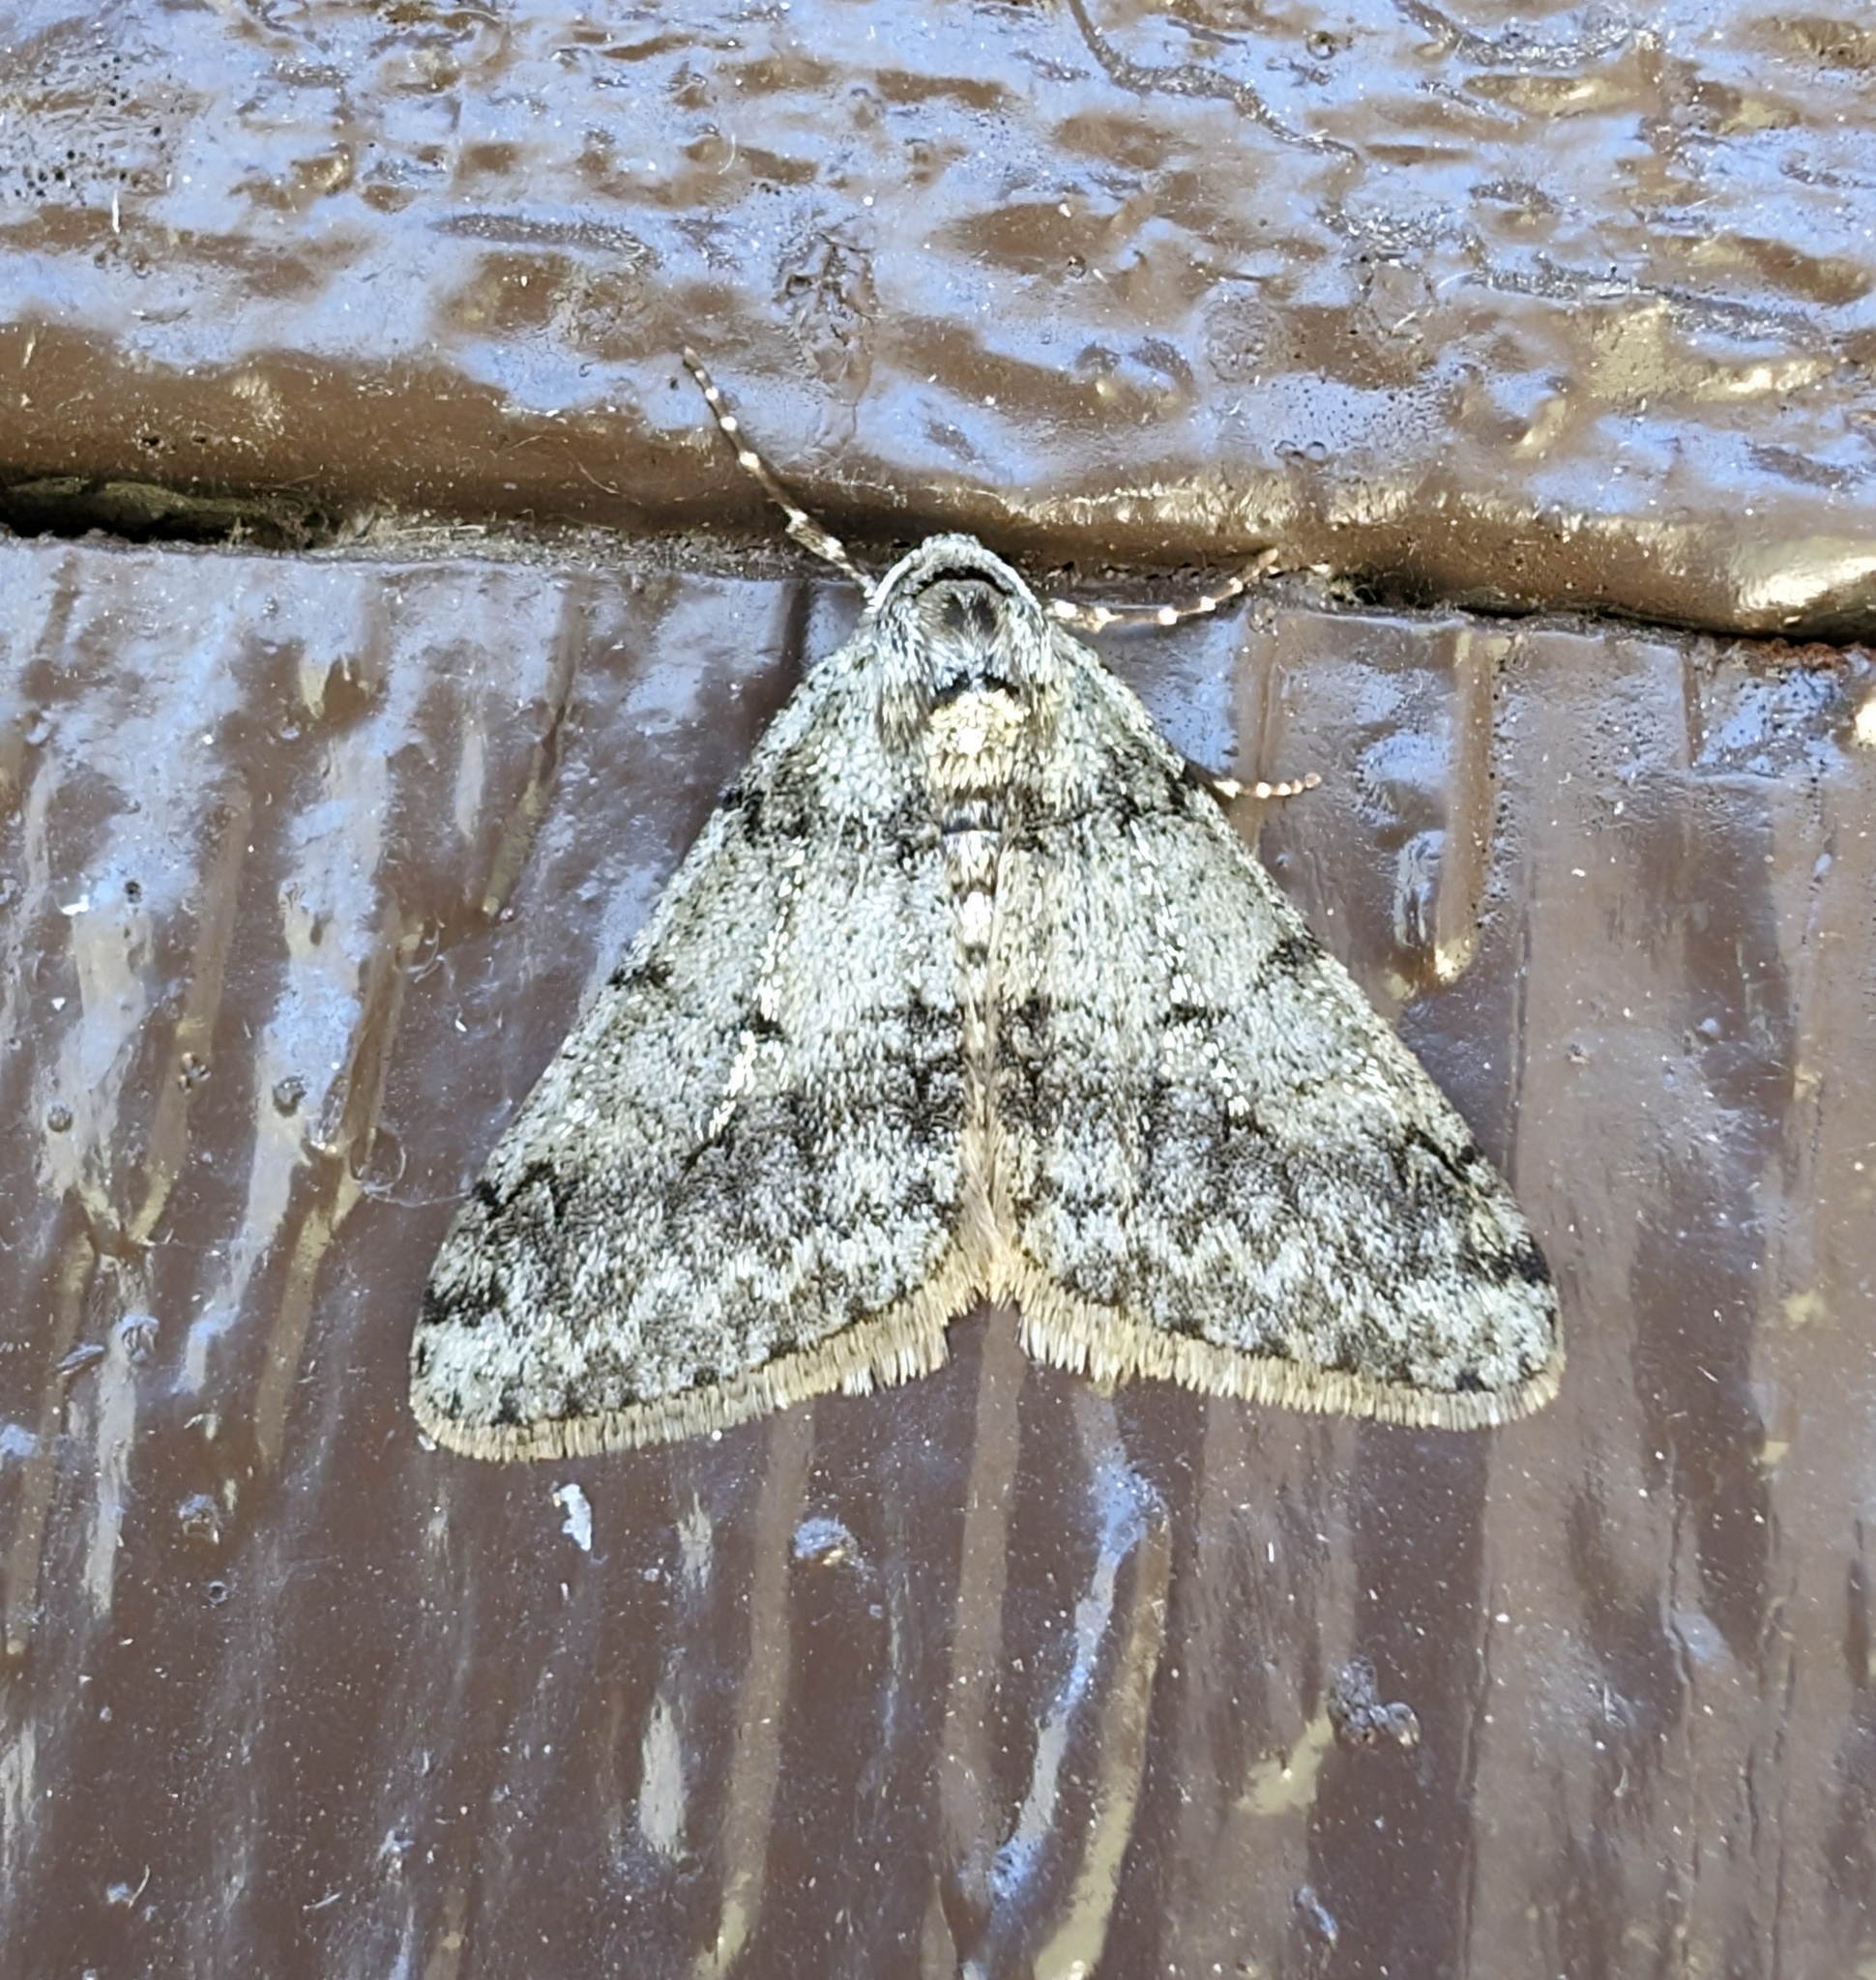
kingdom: Animalia
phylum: Arthropoda
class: Insecta
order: Lepidoptera
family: Geometridae
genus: Phigalia
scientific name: Phigalia strigataria
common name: Small phigalia
